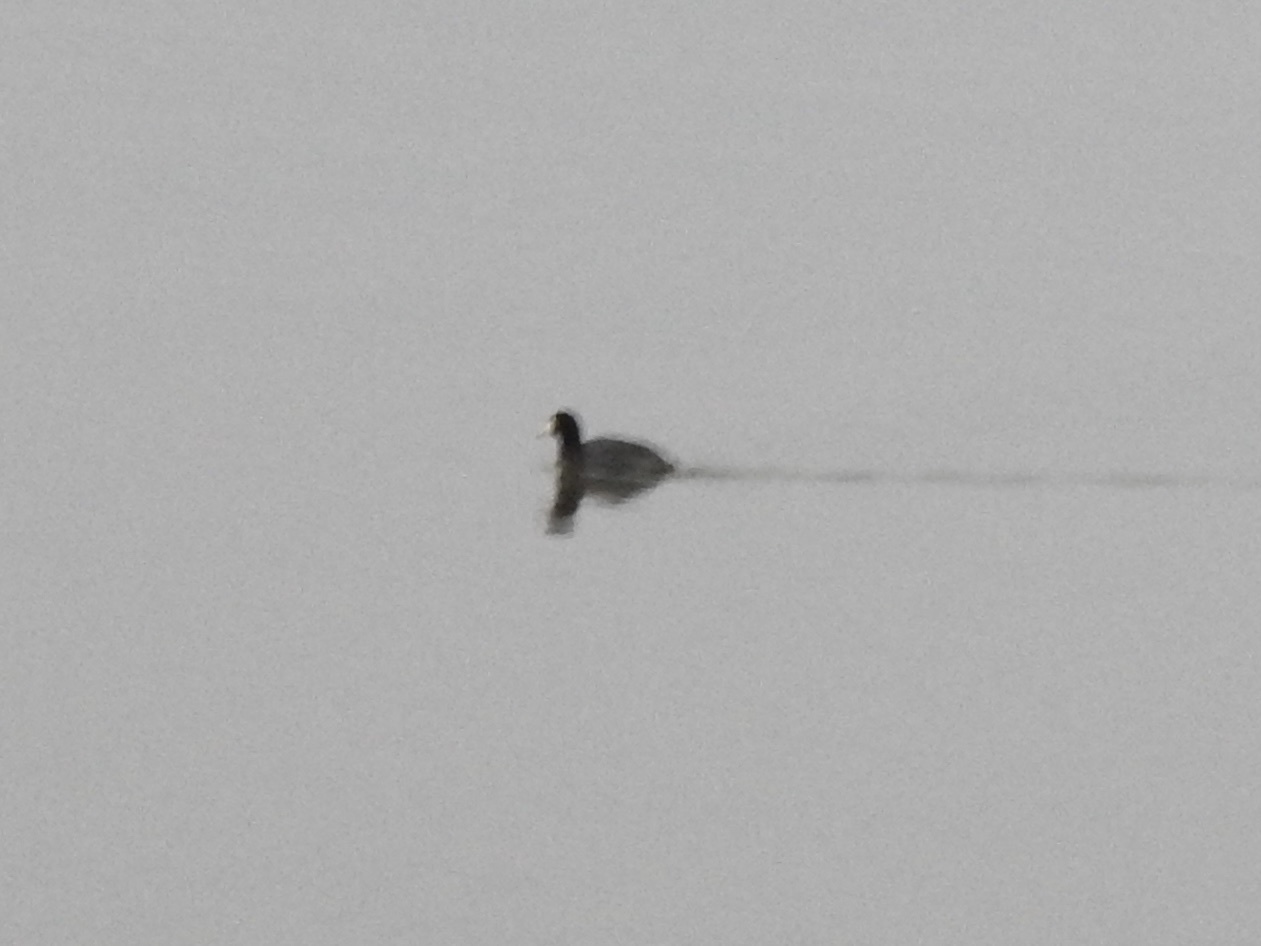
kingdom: Animalia
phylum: Chordata
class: Aves
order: Gruiformes
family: Rallidae
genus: Fulica
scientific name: Fulica americana
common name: American coot
